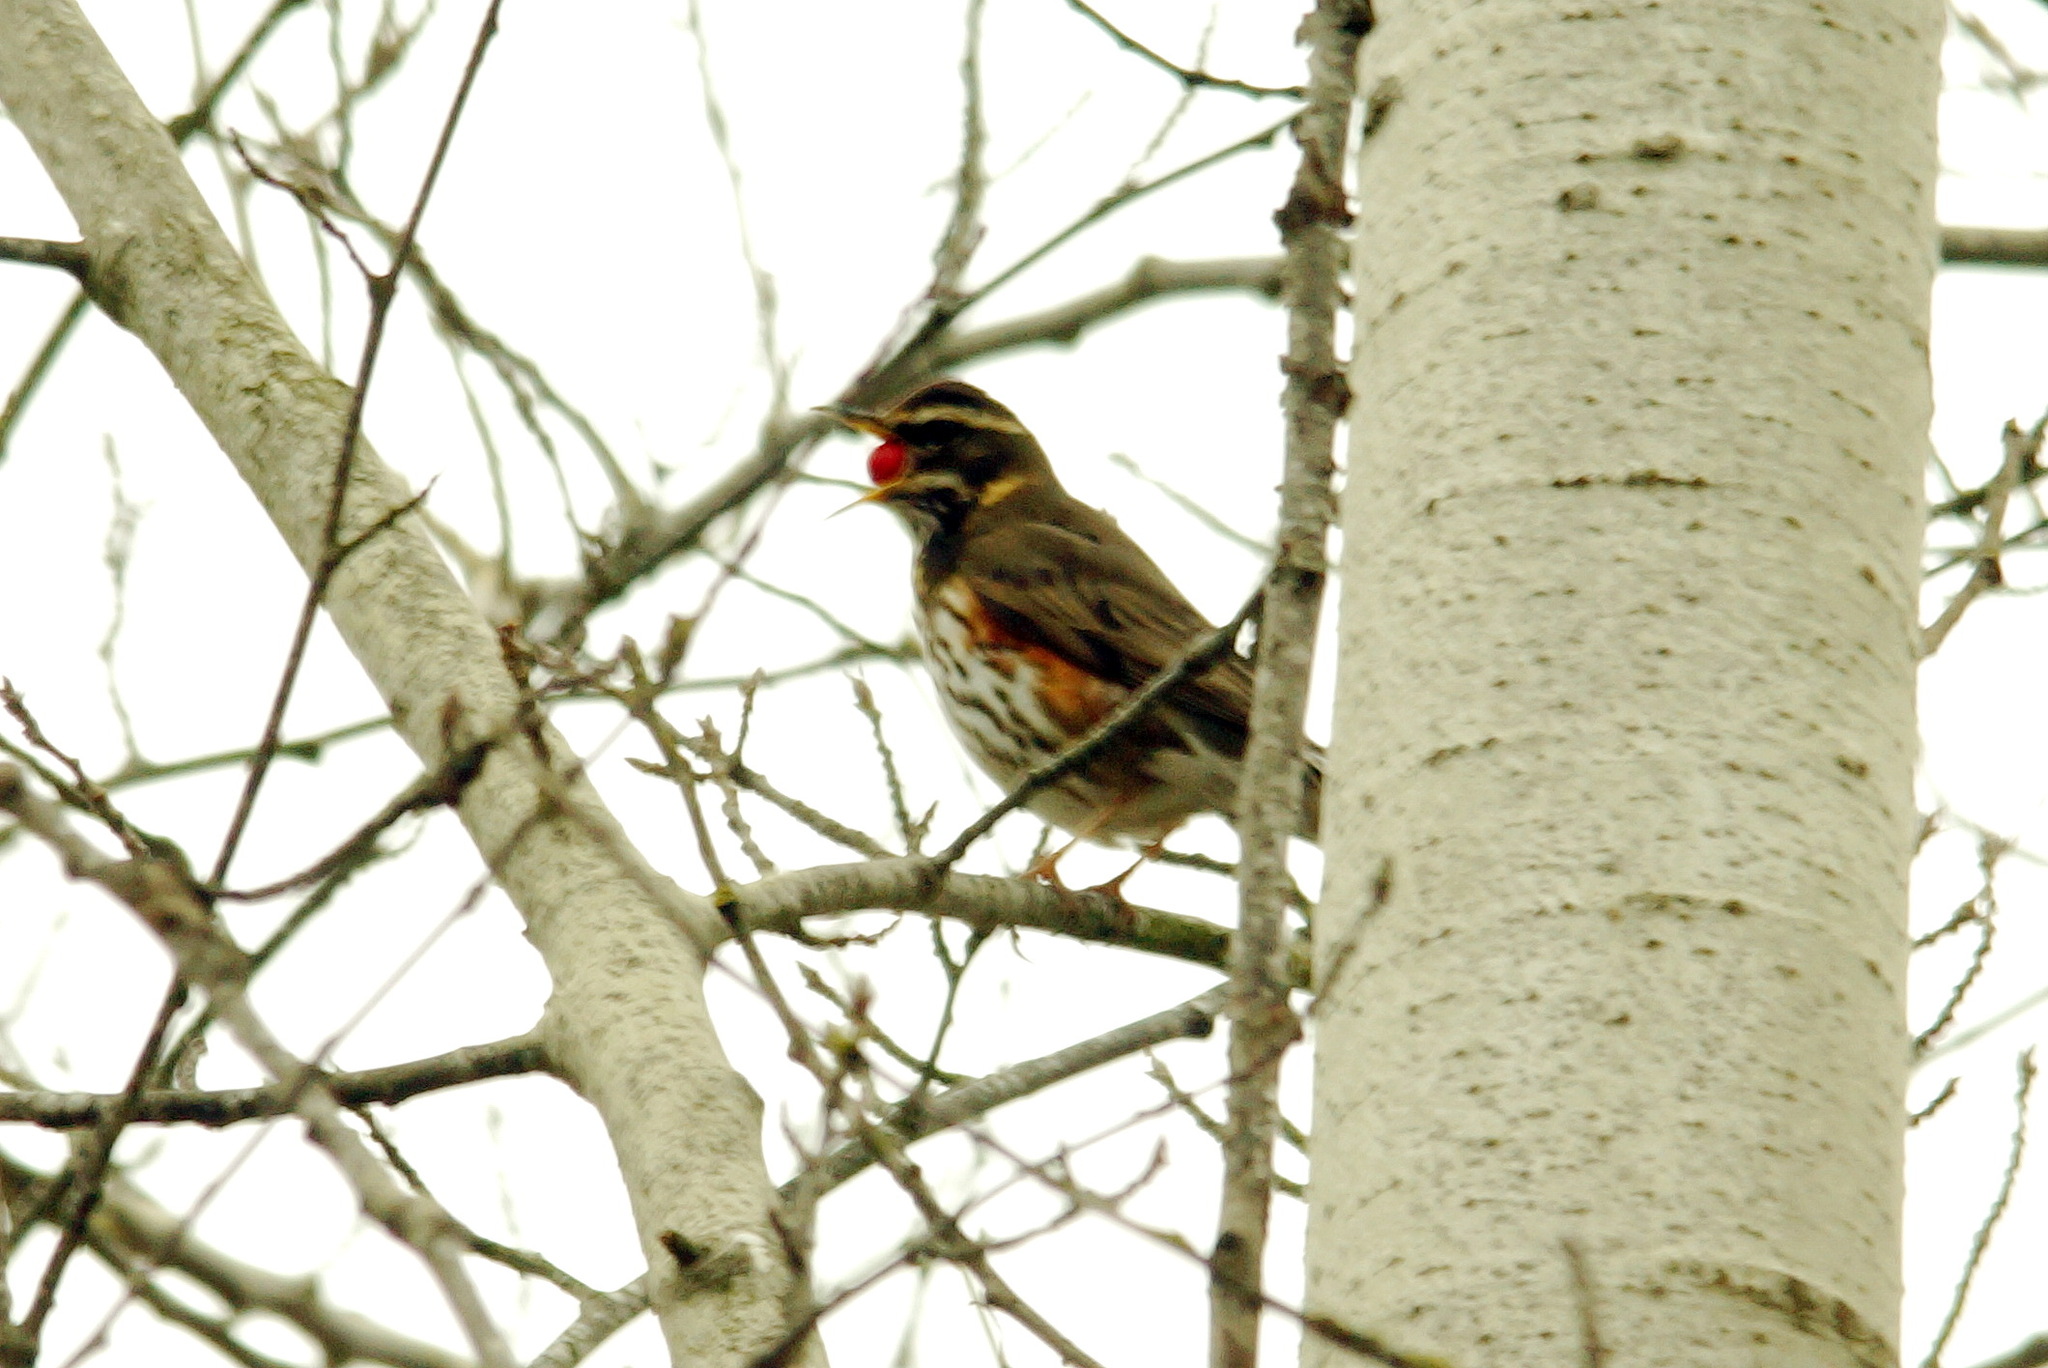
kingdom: Animalia
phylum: Chordata
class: Aves
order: Passeriformes
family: Turdidae
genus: Turdus
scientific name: Turdus iliacus
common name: Redwing
